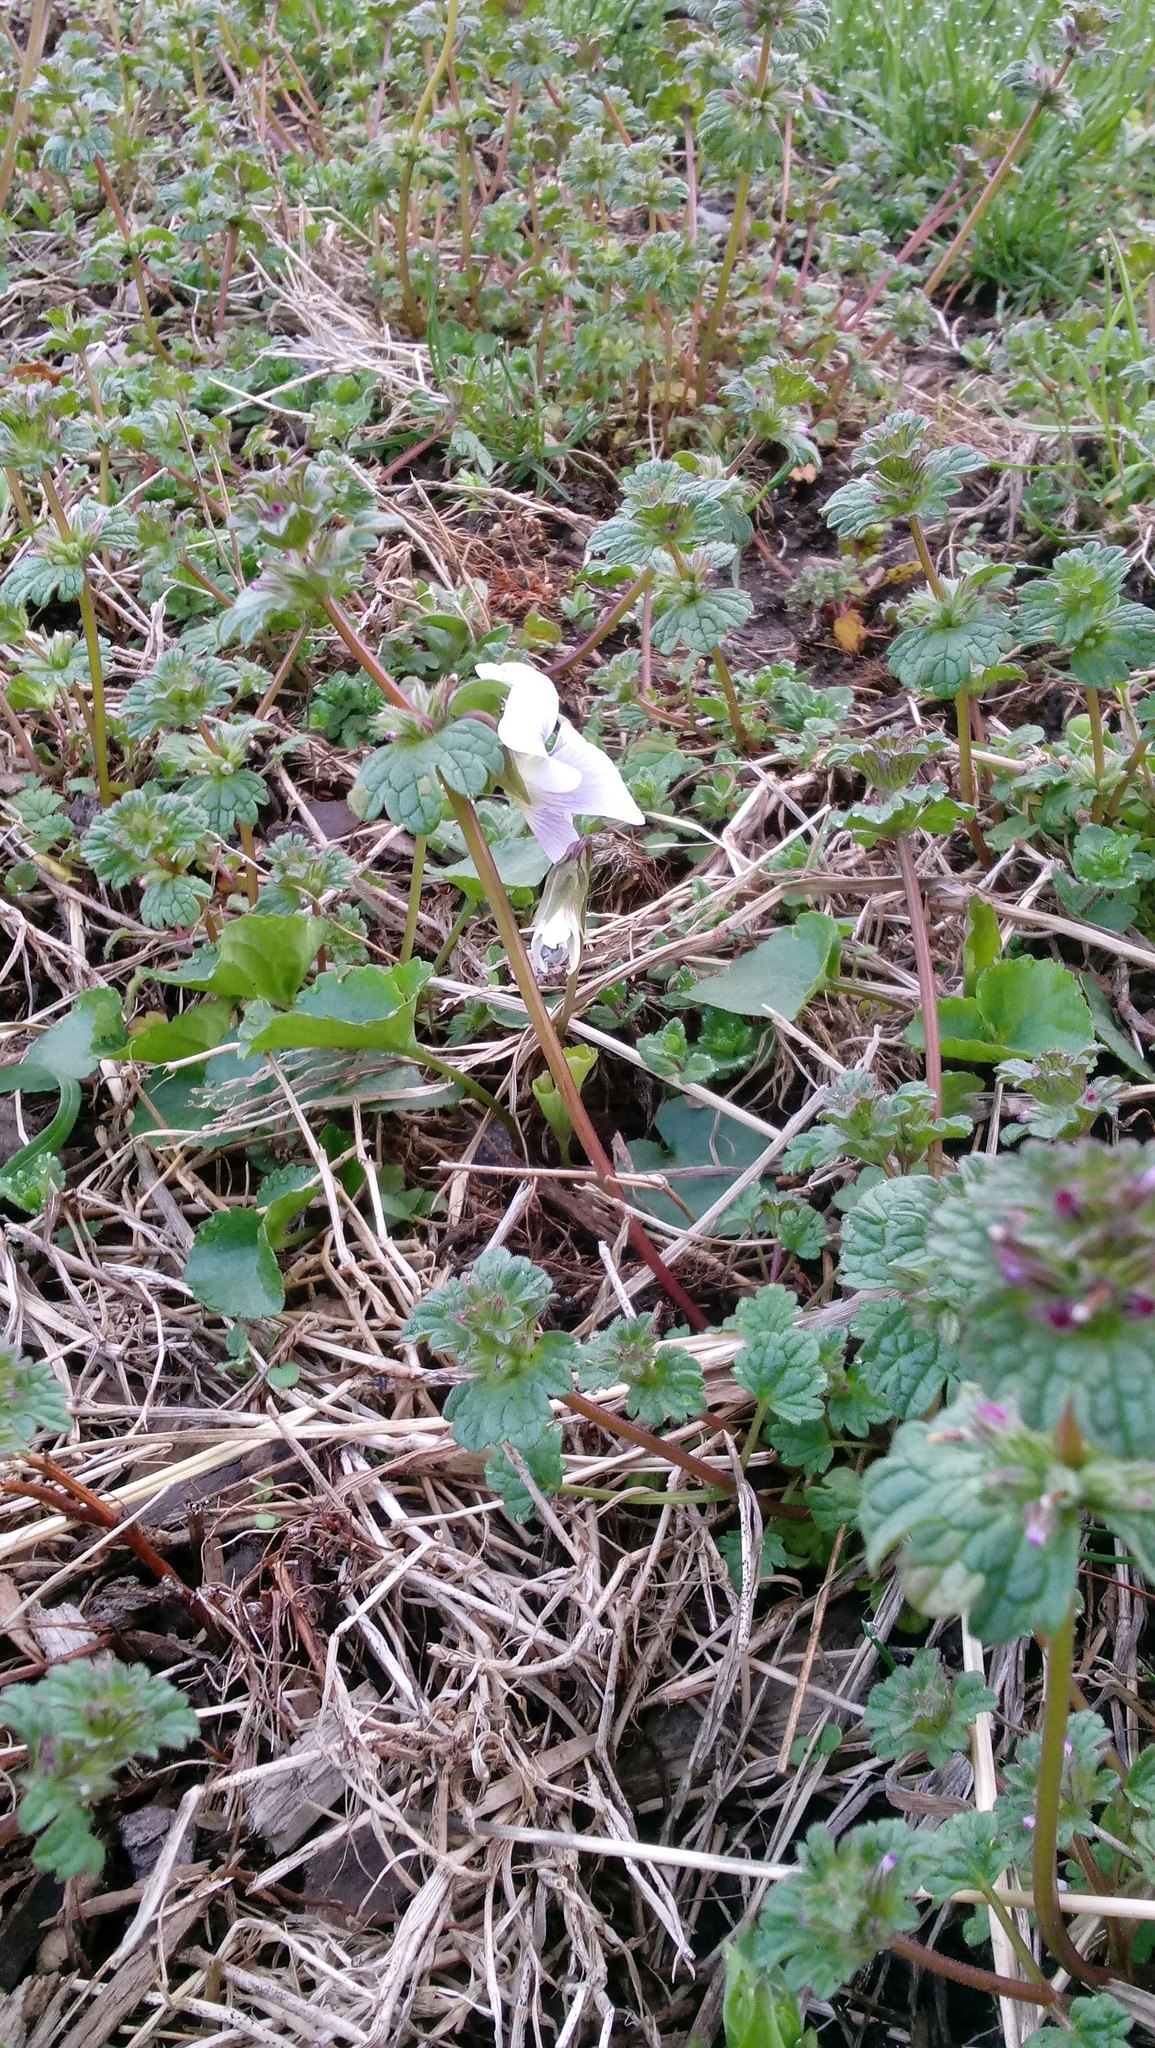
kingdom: Plantae
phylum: Tracheophyta
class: Magnoliopsida
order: Lamiales
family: Lamiaceae
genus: Lamium
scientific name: Lamium amplexicaule
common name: Henbit dead-nettle
